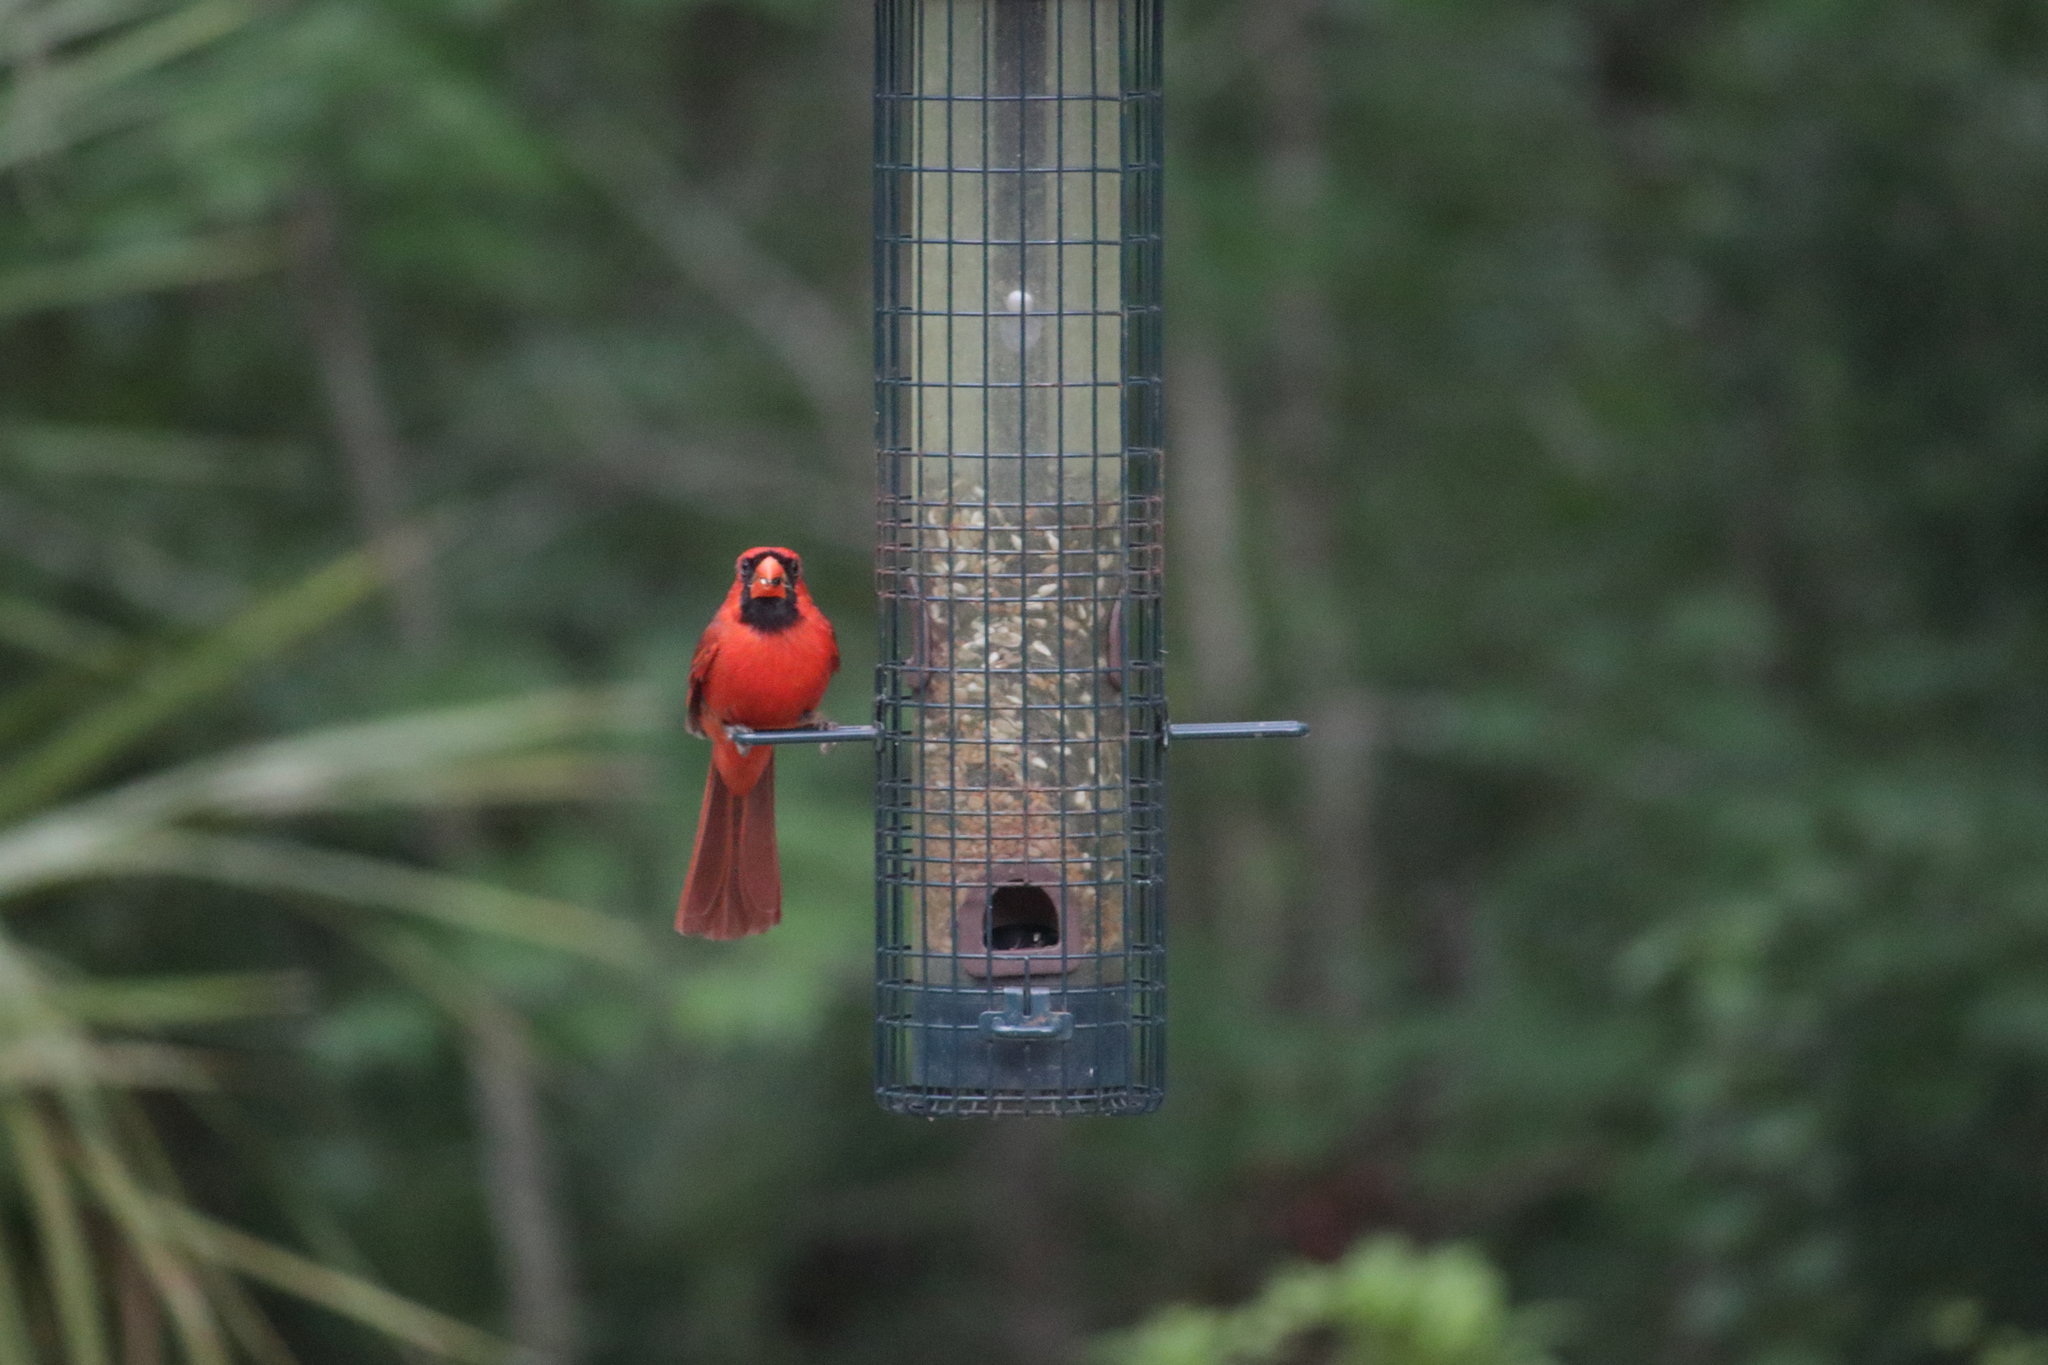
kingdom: Animalia
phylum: Chordata
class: Aves
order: Passeriformes
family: Cardinalidae
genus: Cardinalis
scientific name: Cardinalis cardinalis
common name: Northern cardinal
